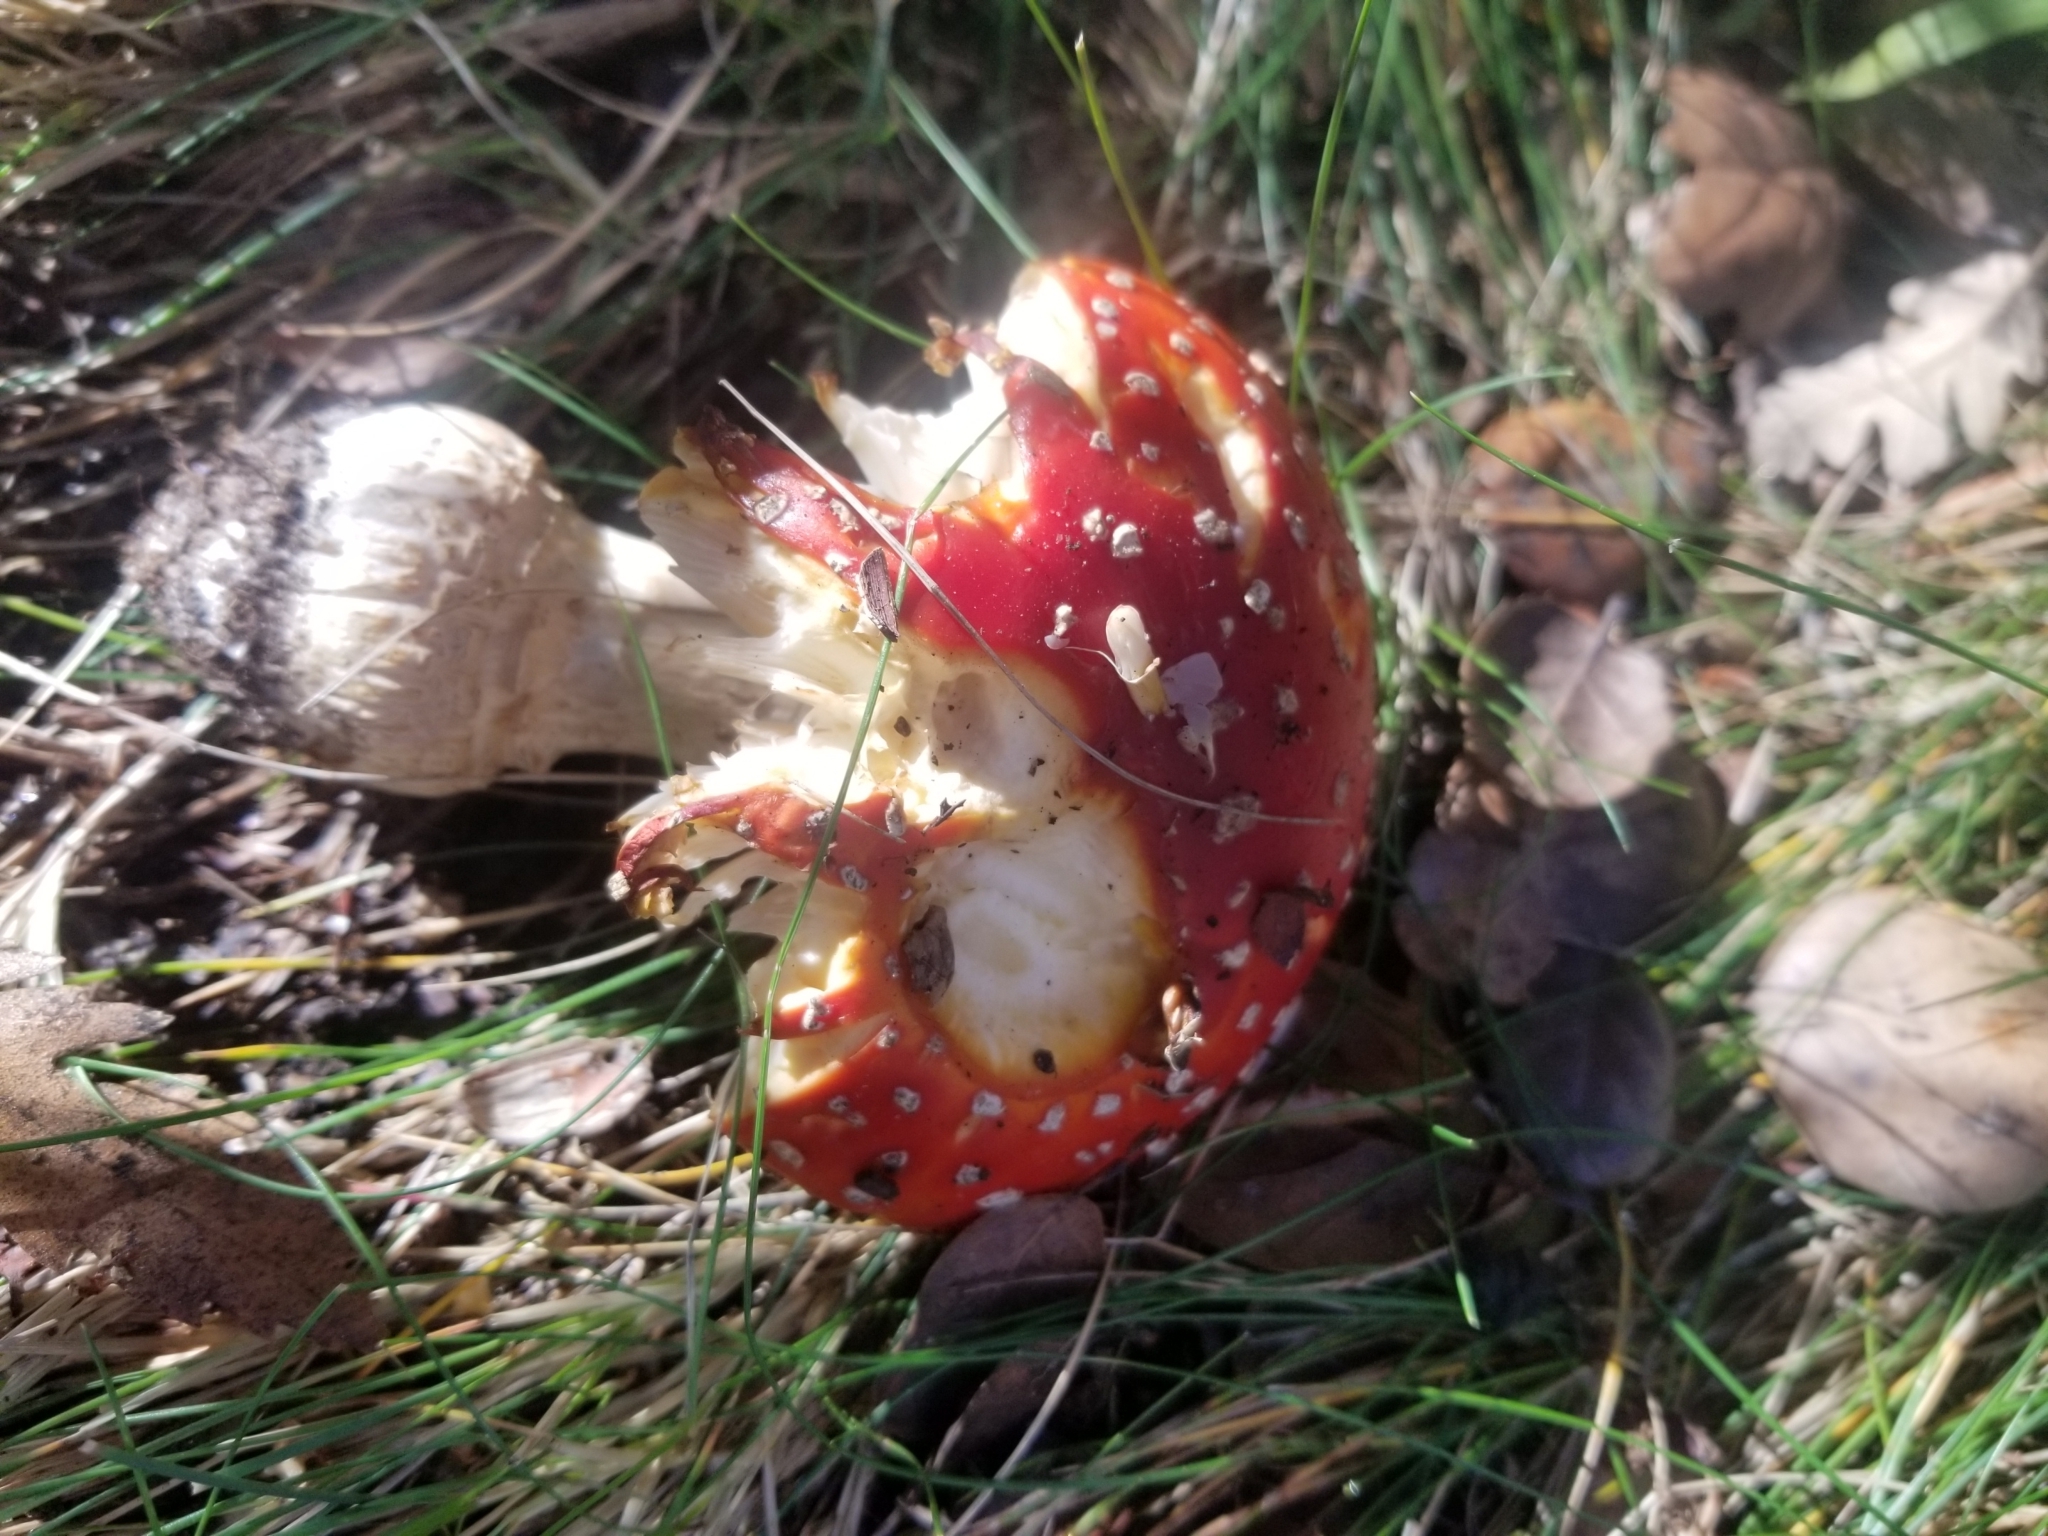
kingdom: Fungi
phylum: Basidiomycota
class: Agaricomycetes
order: Agaricales
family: Amanitaceae
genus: Amanita
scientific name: Amanita muscaria
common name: Fly agaric
